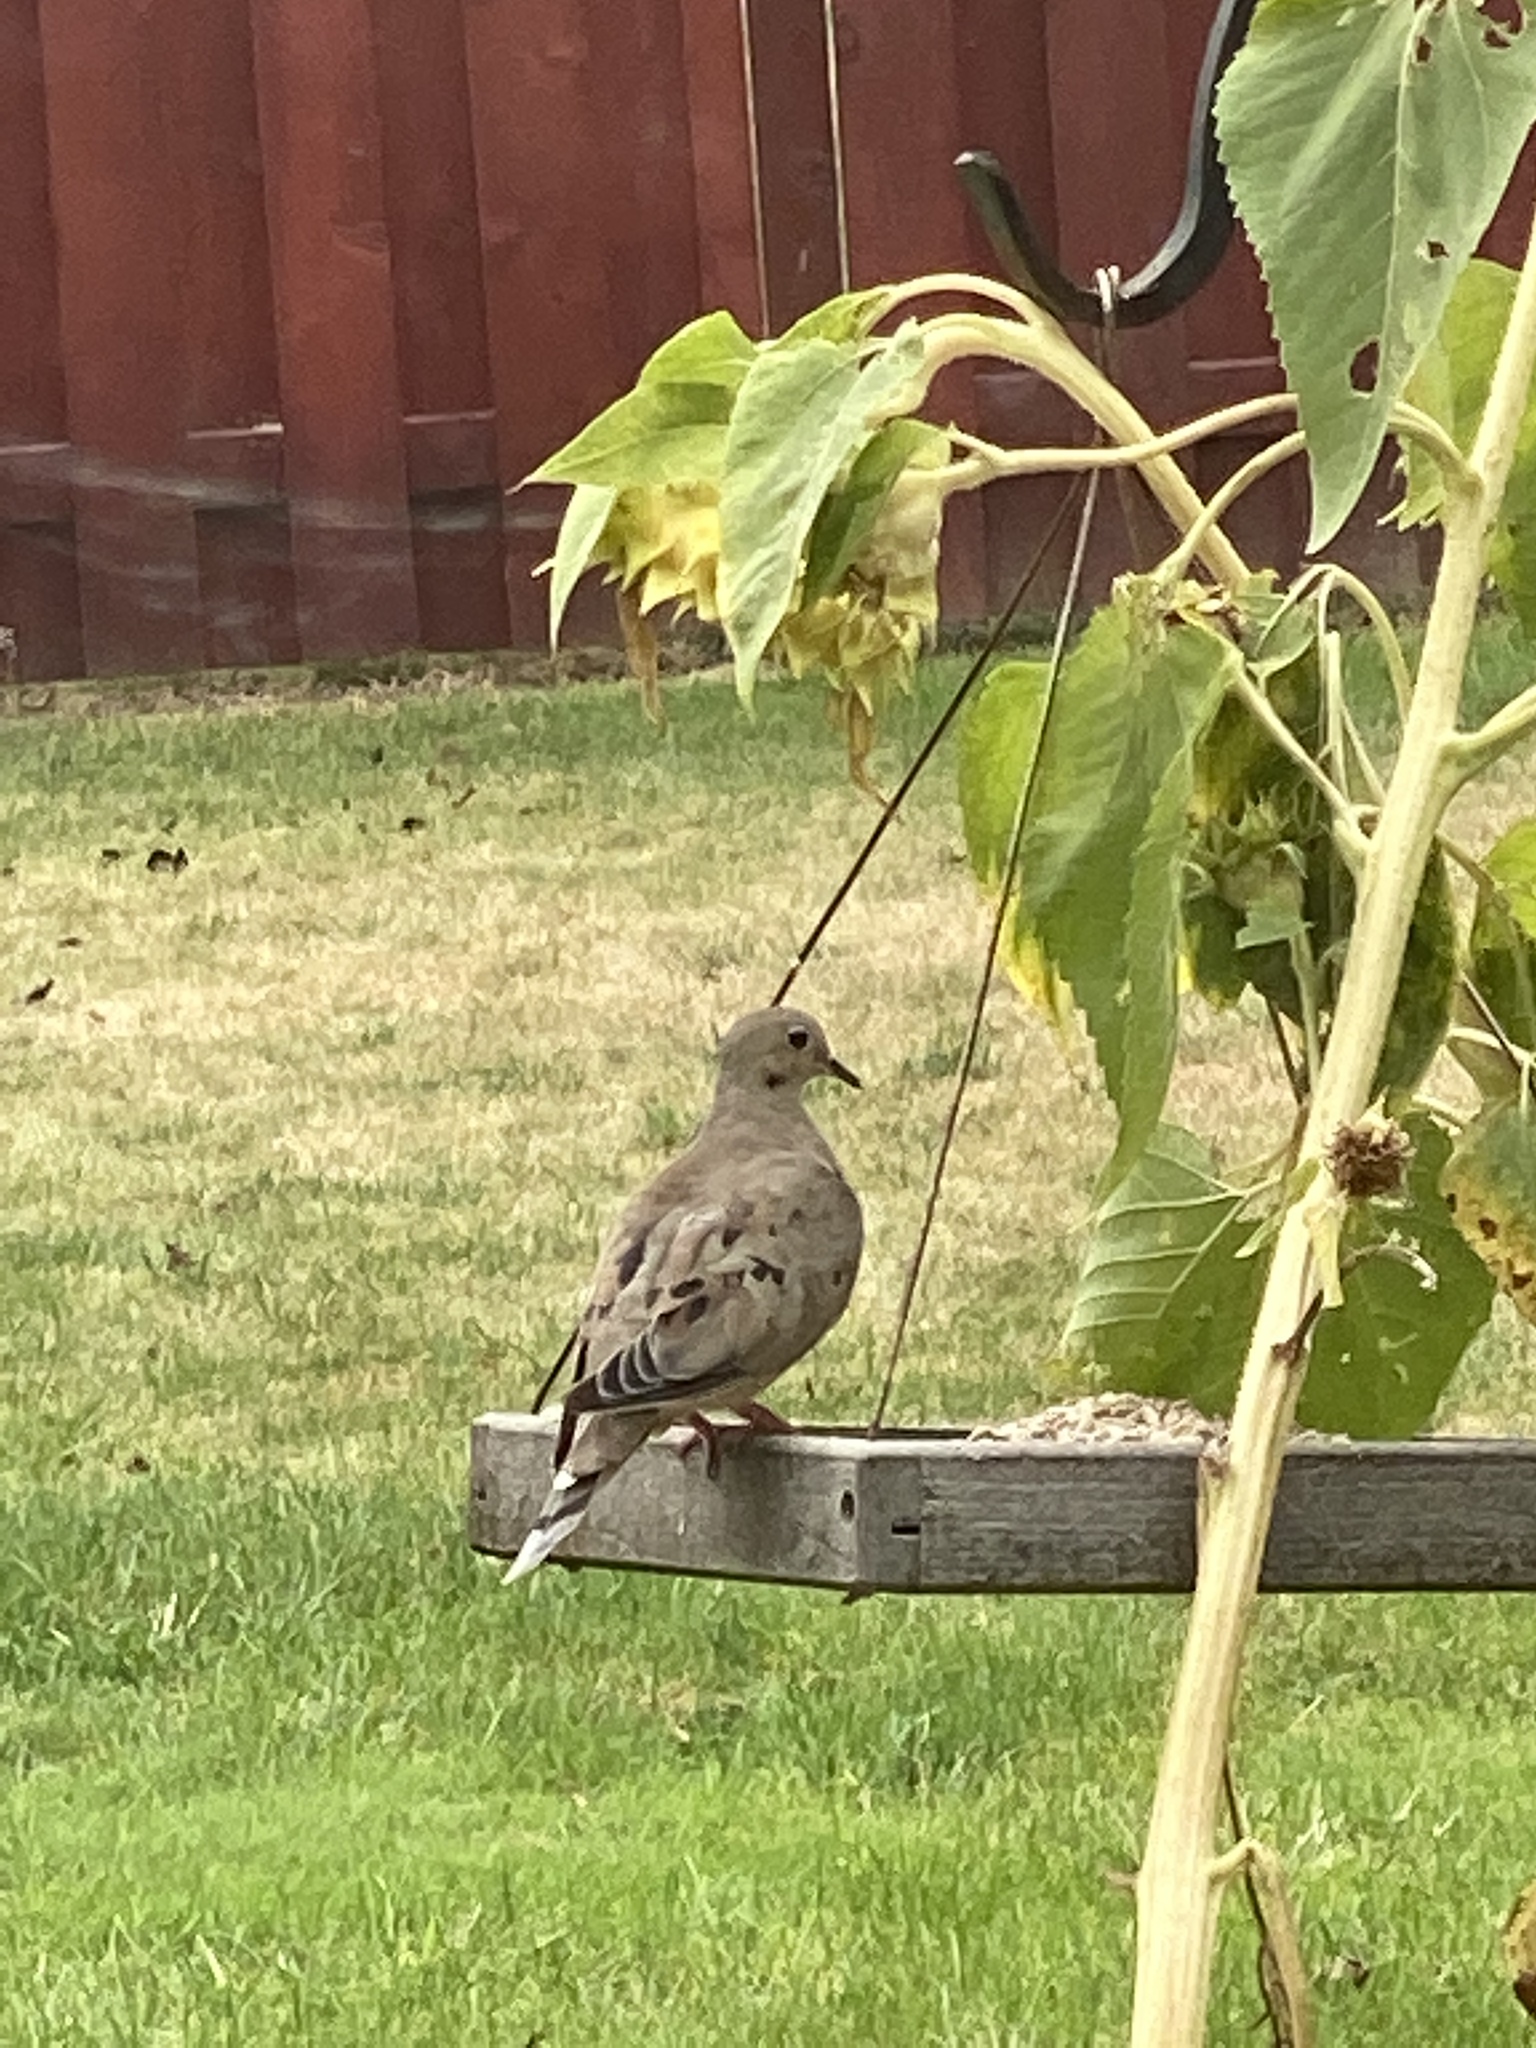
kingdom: Animalia
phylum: Chordata
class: Aves
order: Columbiformes
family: Columbidae
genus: Zenaida
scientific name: Zenaida macroura
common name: Mourning dove
